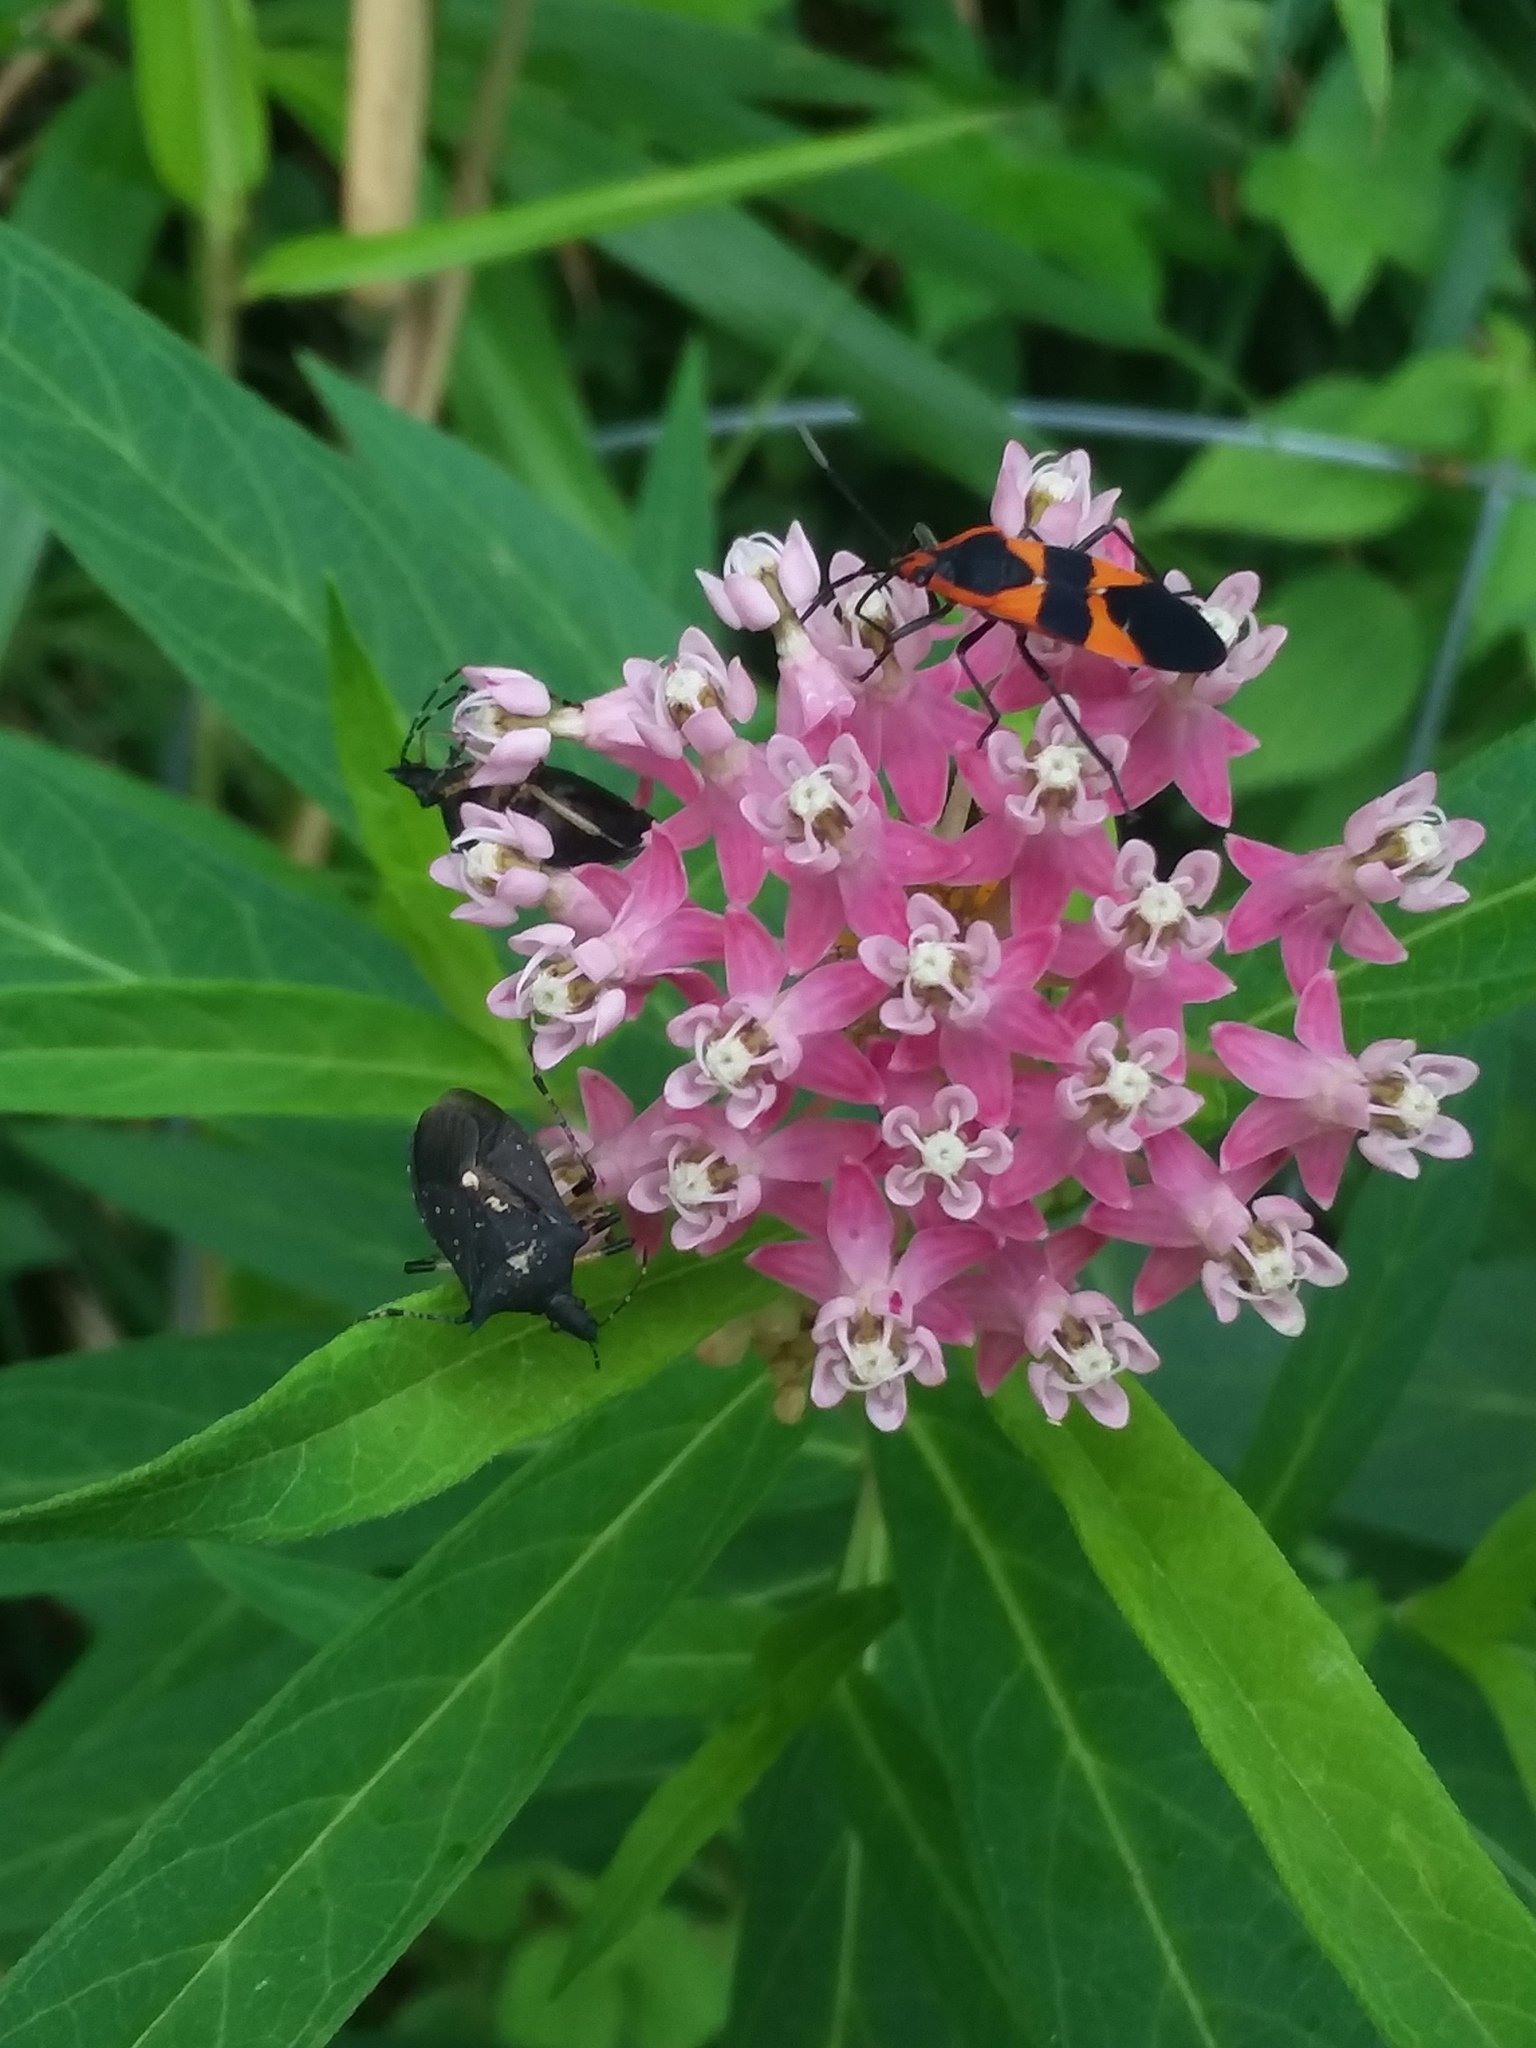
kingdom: Animalia
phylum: Arthropoda
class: Insecta
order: Hemiptera
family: Pentatomidae
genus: Proxys
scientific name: Proxys punctulatus
